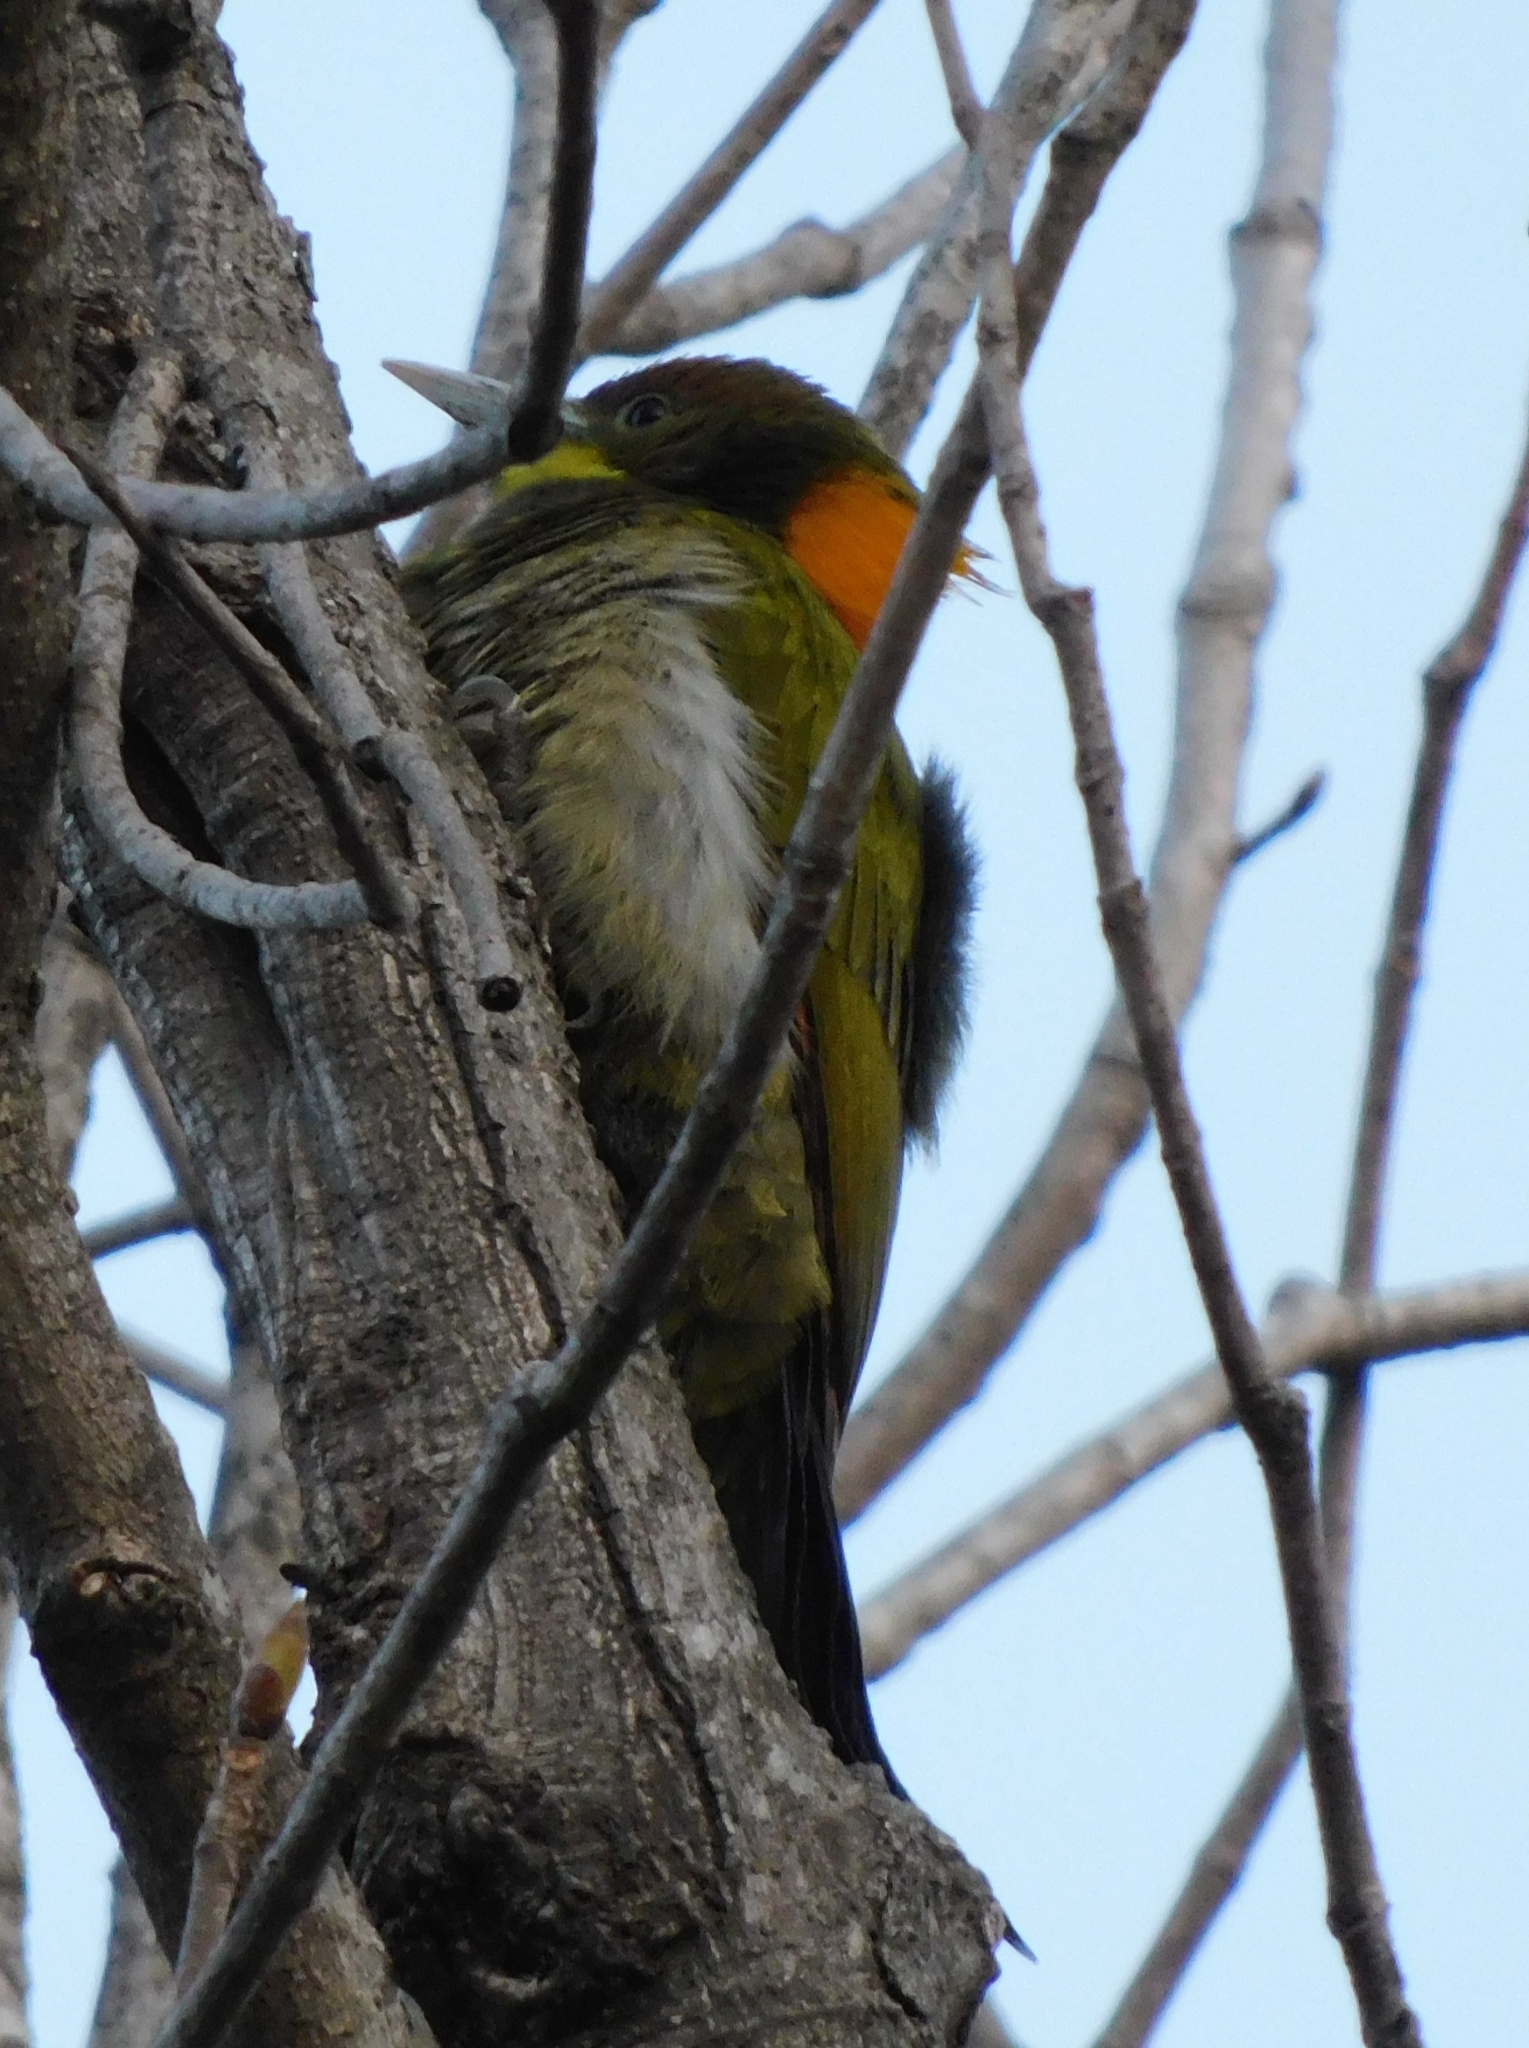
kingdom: Animalia
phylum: Chordata
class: Aves
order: Piciformes
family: Picidae
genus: Chrysophlegma
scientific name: Chrysophlegma flavinucha
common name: Greater yellownape
